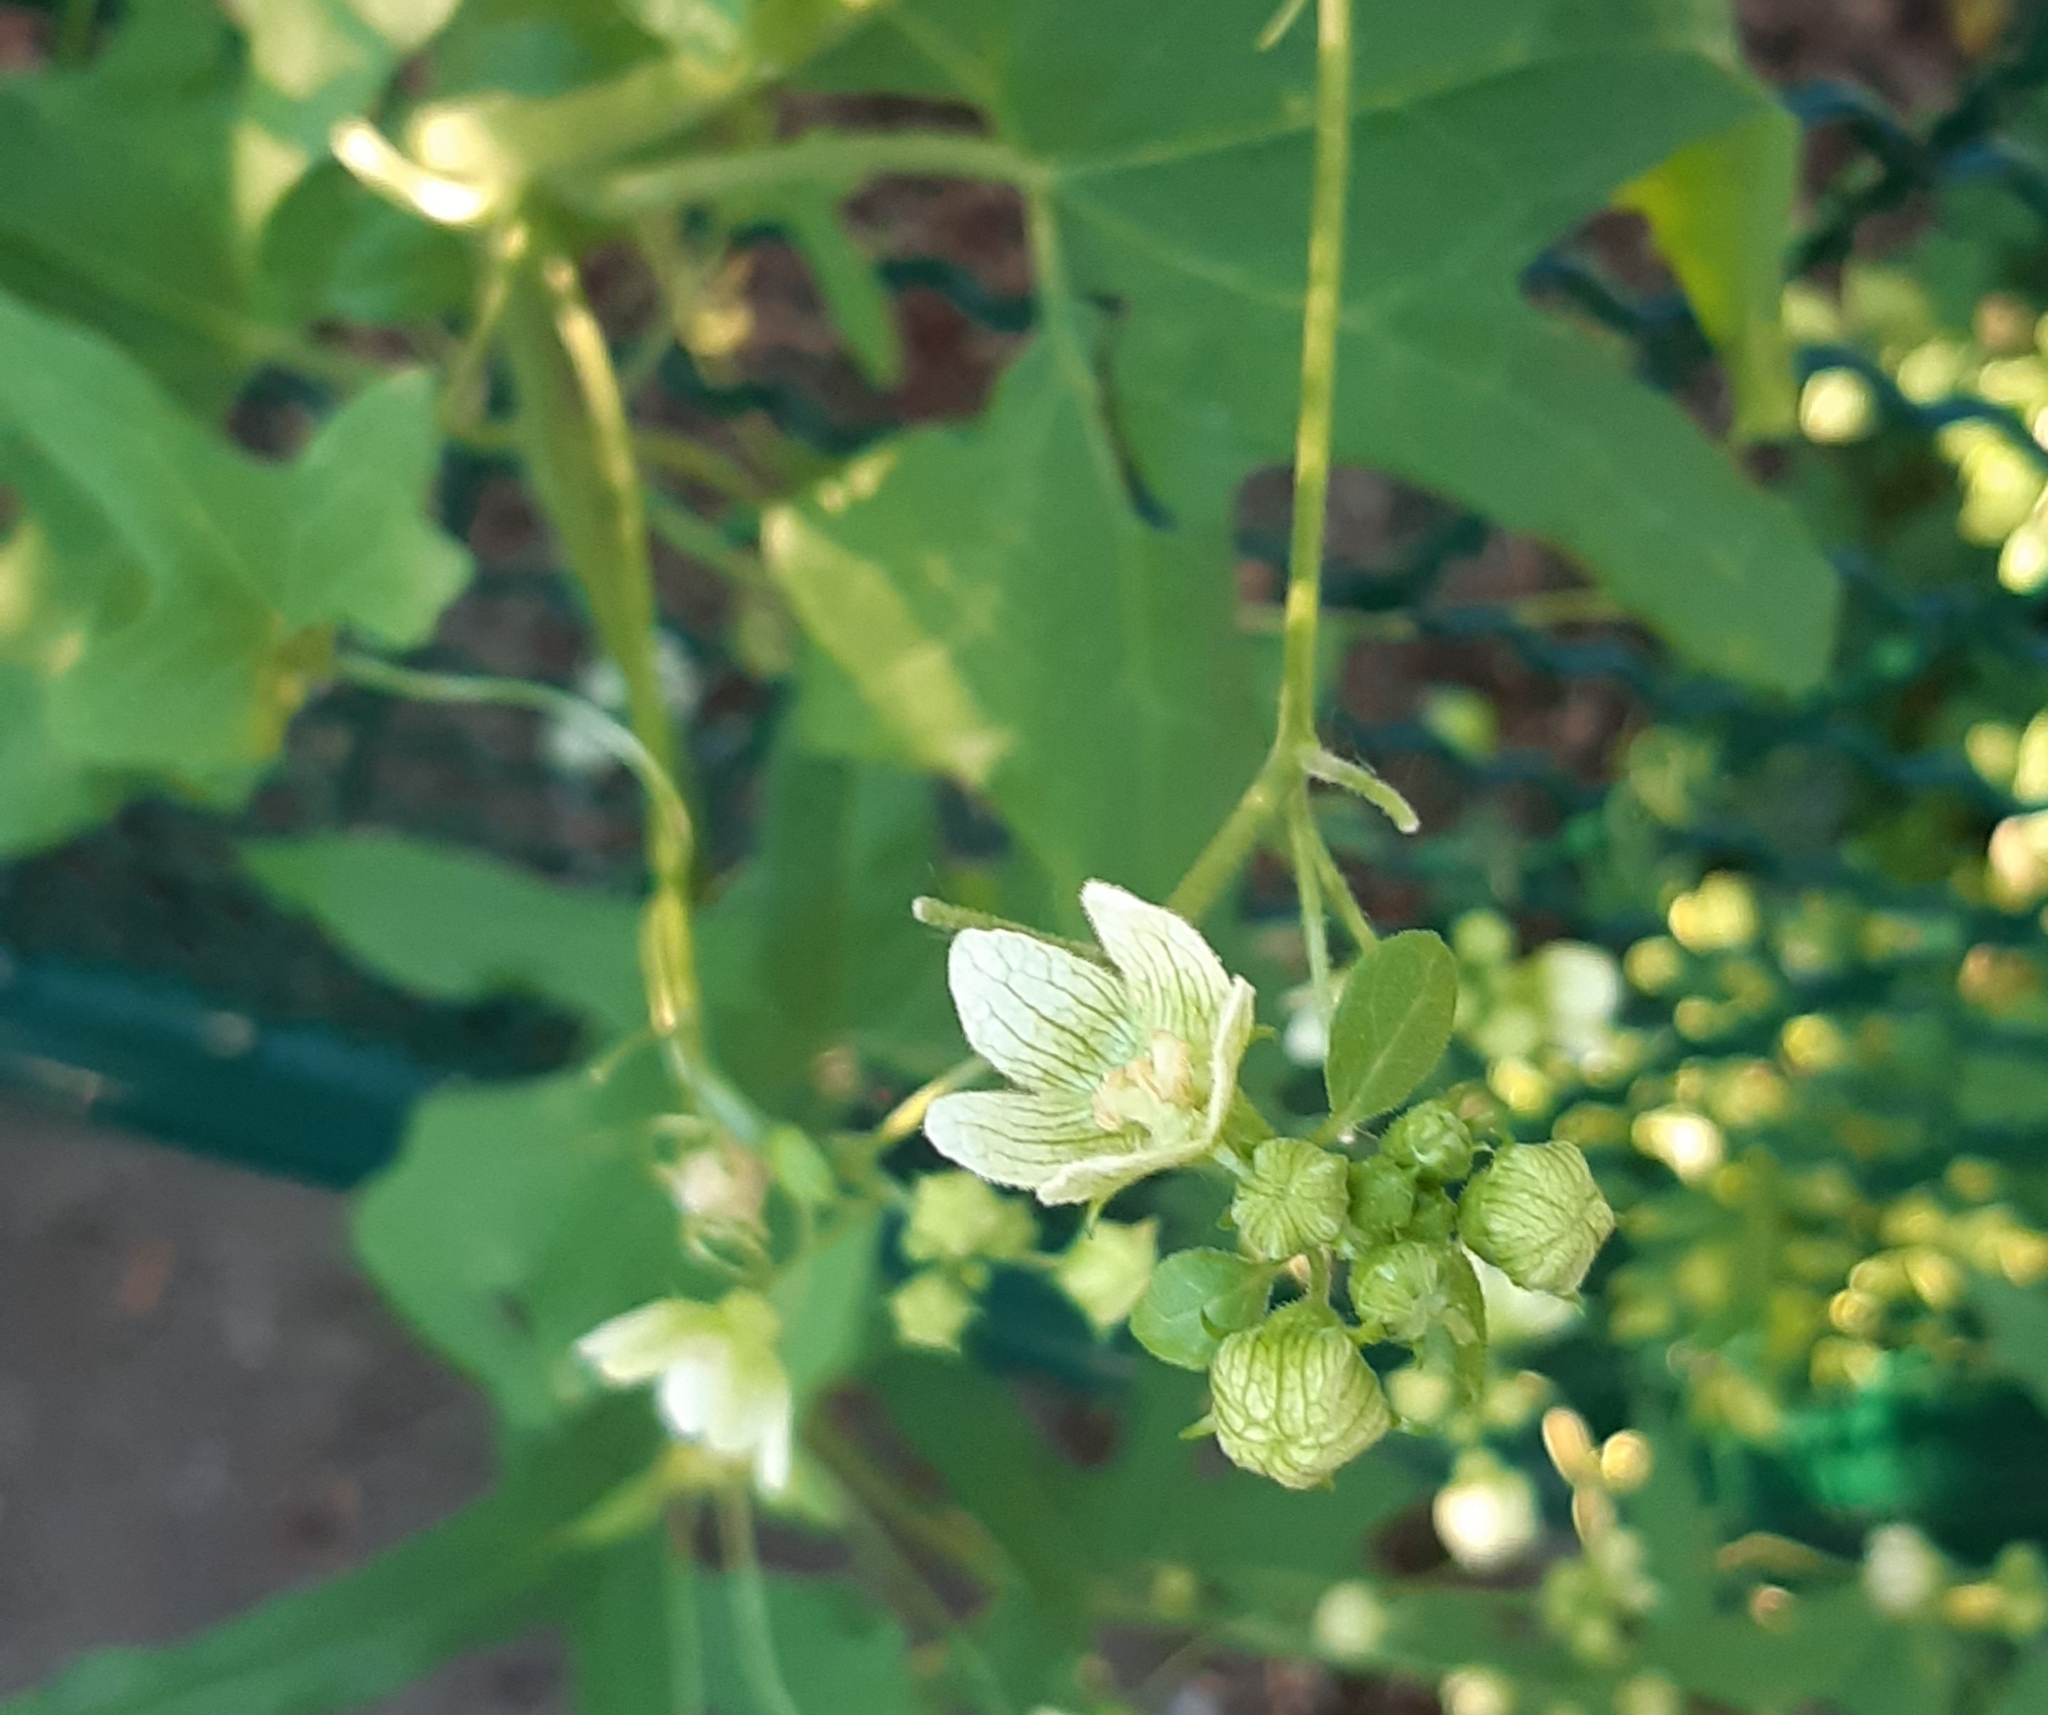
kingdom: Plantae
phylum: Tracheophyta
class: Magnoliopsida
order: Cucurbitales
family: Cucurbitaceae
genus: Bryonia
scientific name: Bryonia cretica
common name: Cretan bryony
